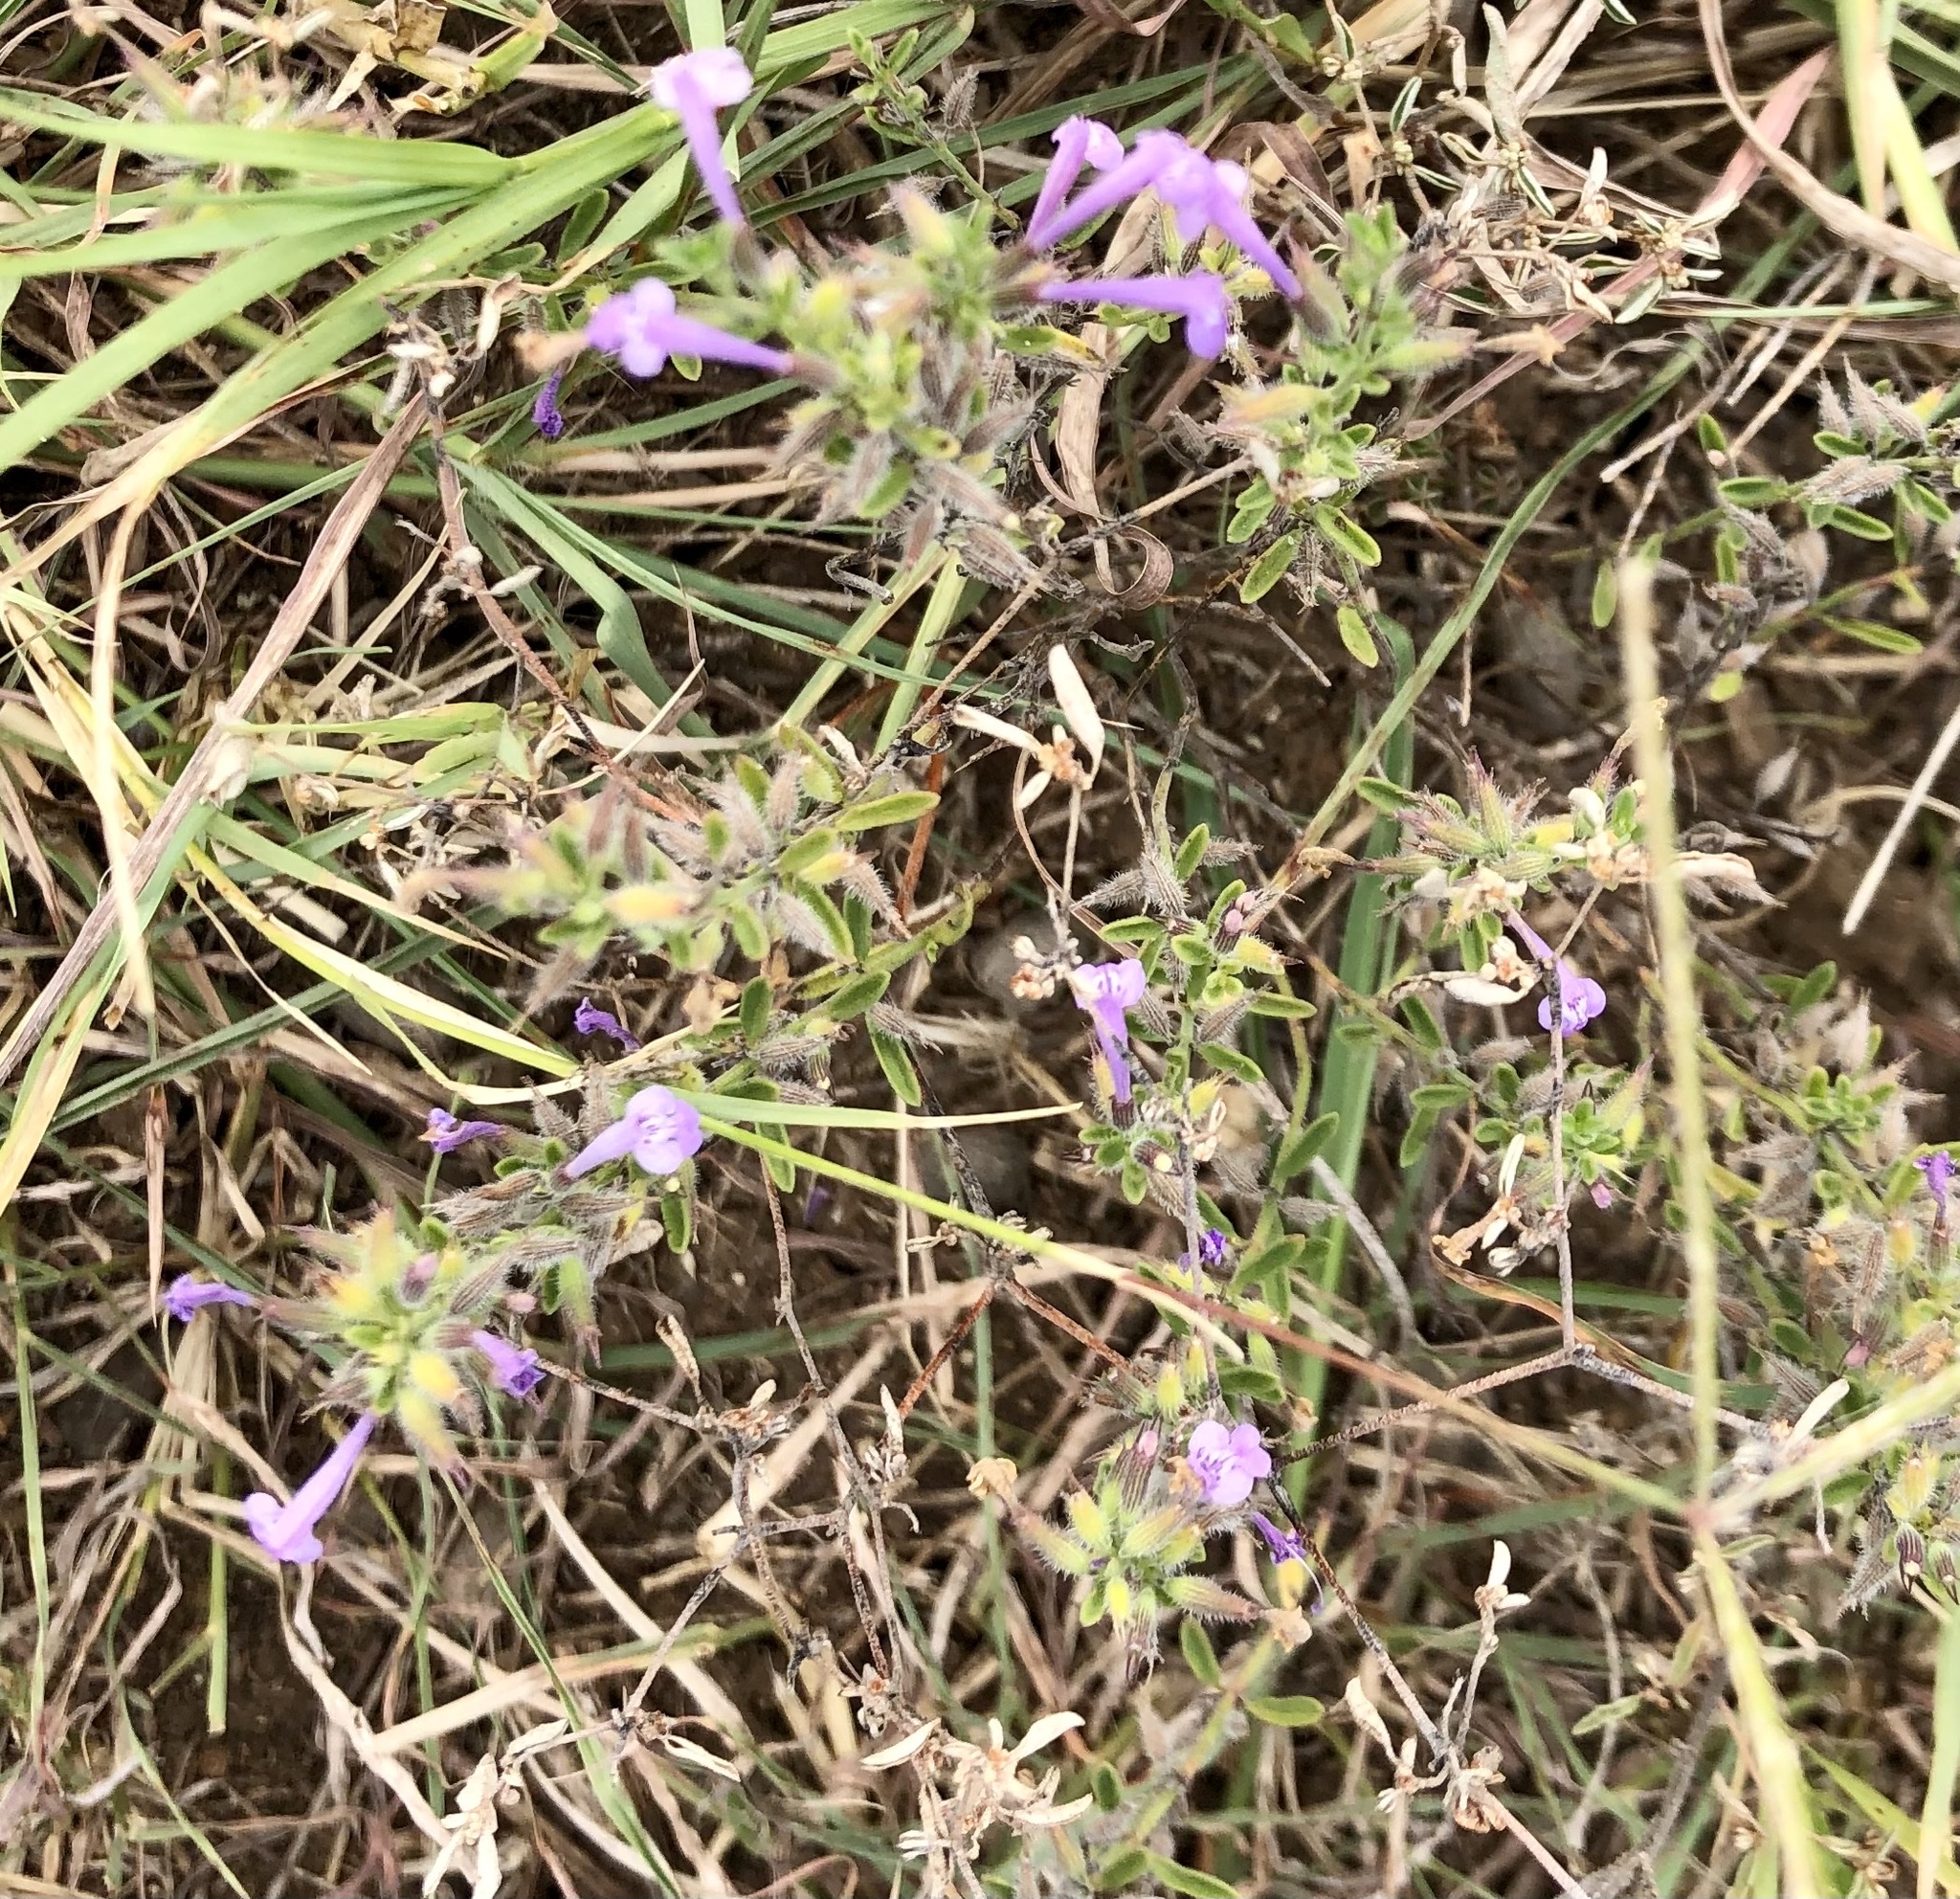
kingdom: Plantae
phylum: Tracheophyta
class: Magnoliopsida
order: Lamiales
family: Lamiaceae
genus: Hedeoma
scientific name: Hedeoma reverchonii
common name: Reverchon's false penny-royal
